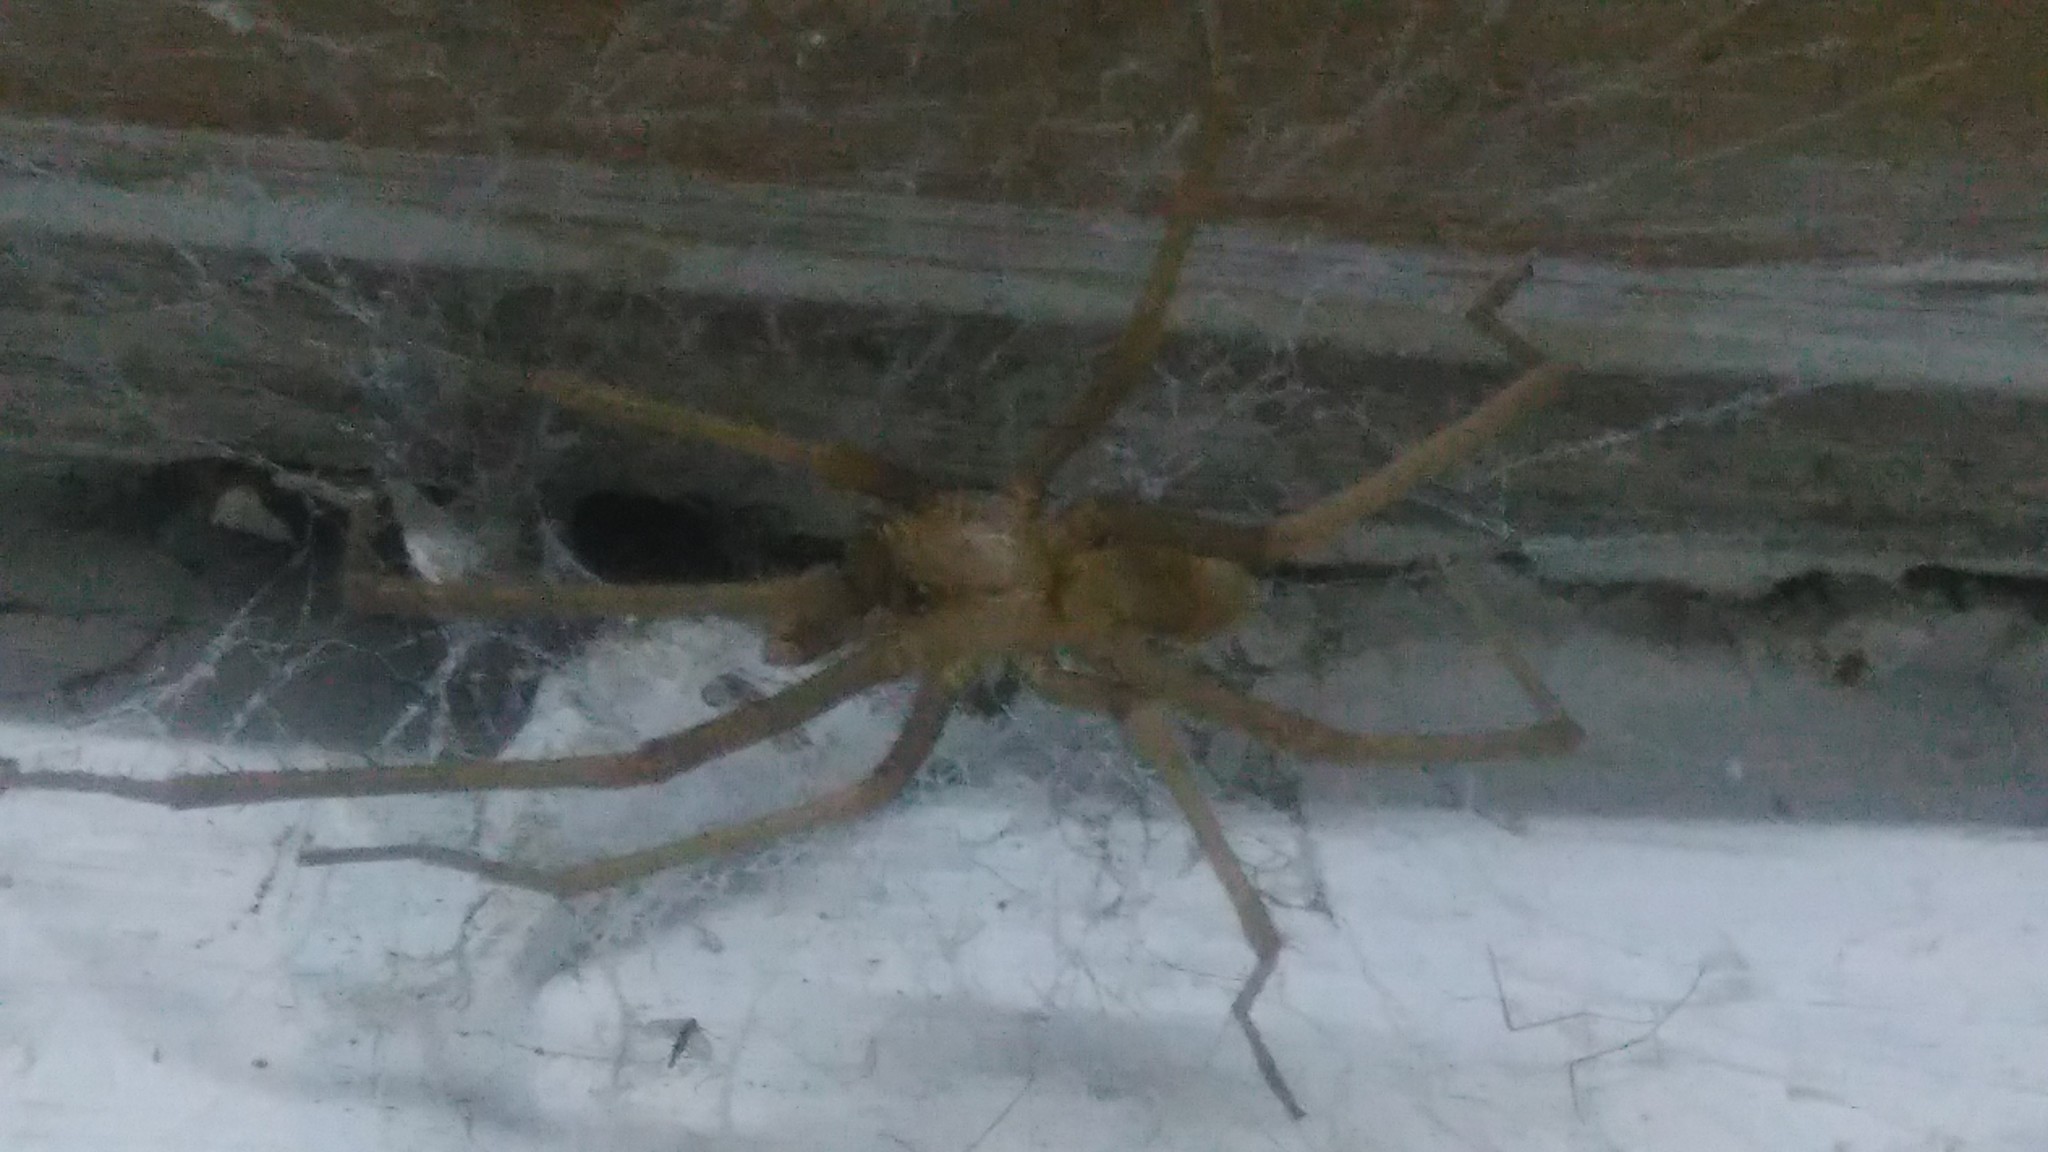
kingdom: Animalia
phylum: Arthropoda
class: Arachnida
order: Araneae
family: Filistatidae
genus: Kukulcania
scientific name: Kukulcania hibernalis
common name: Crevice weaver
